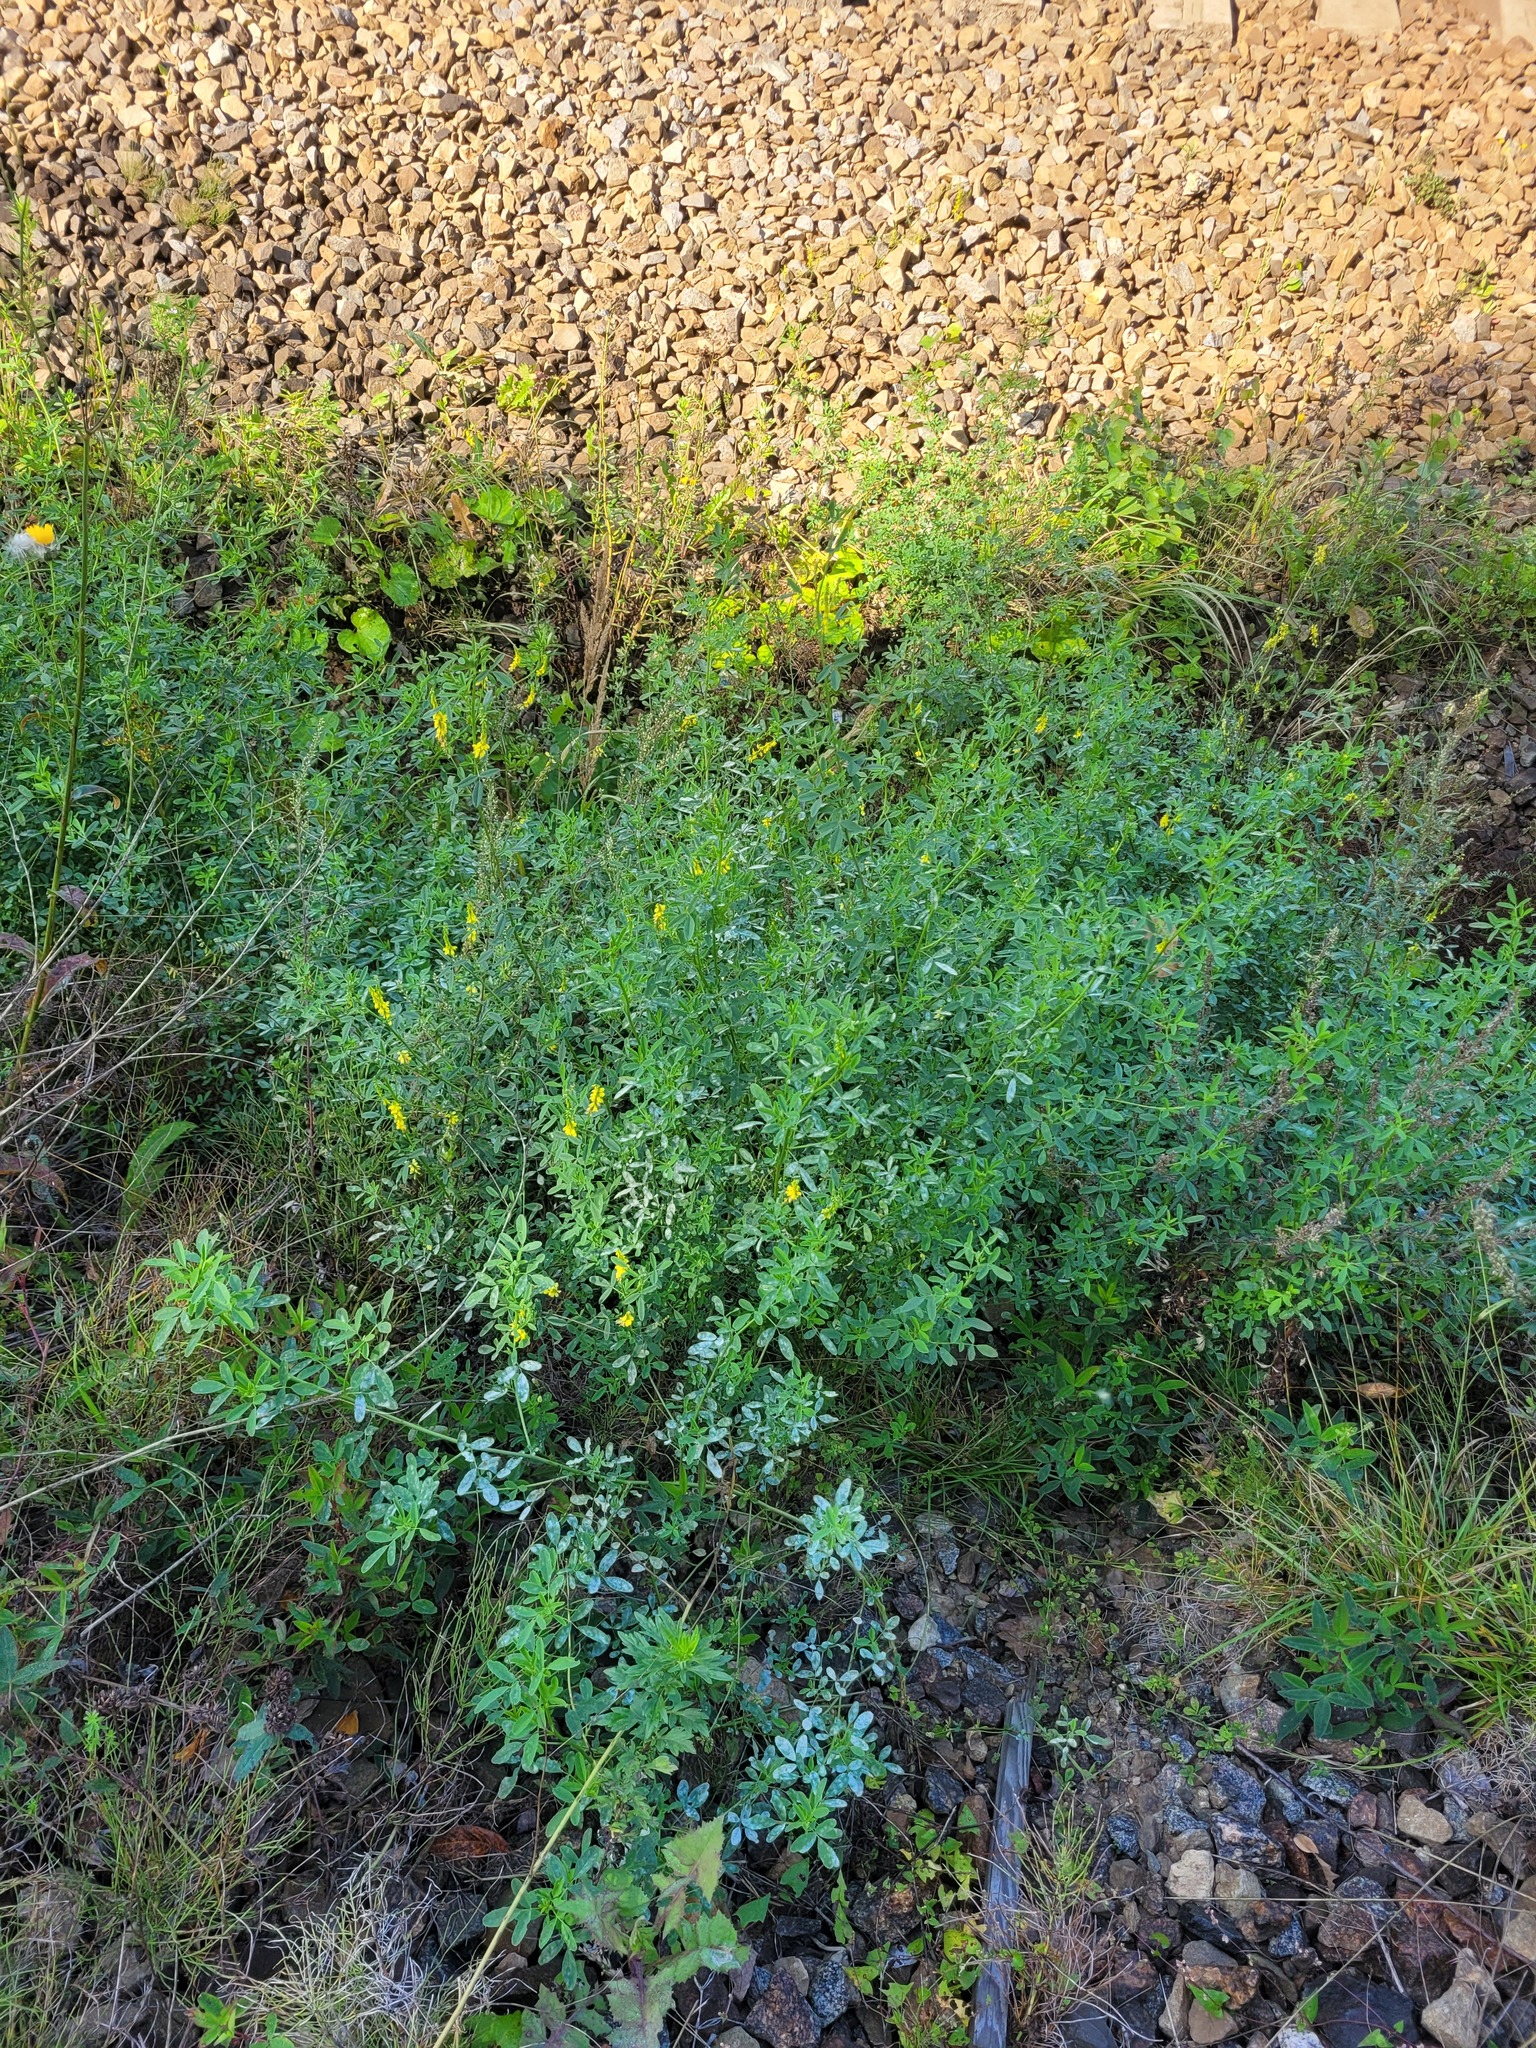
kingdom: Plantae
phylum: Tracheophyta
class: Magnoliopsida
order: Fabales
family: Fabaceae
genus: Melilotus
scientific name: Melilotus officinalis
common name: Sweetclover
